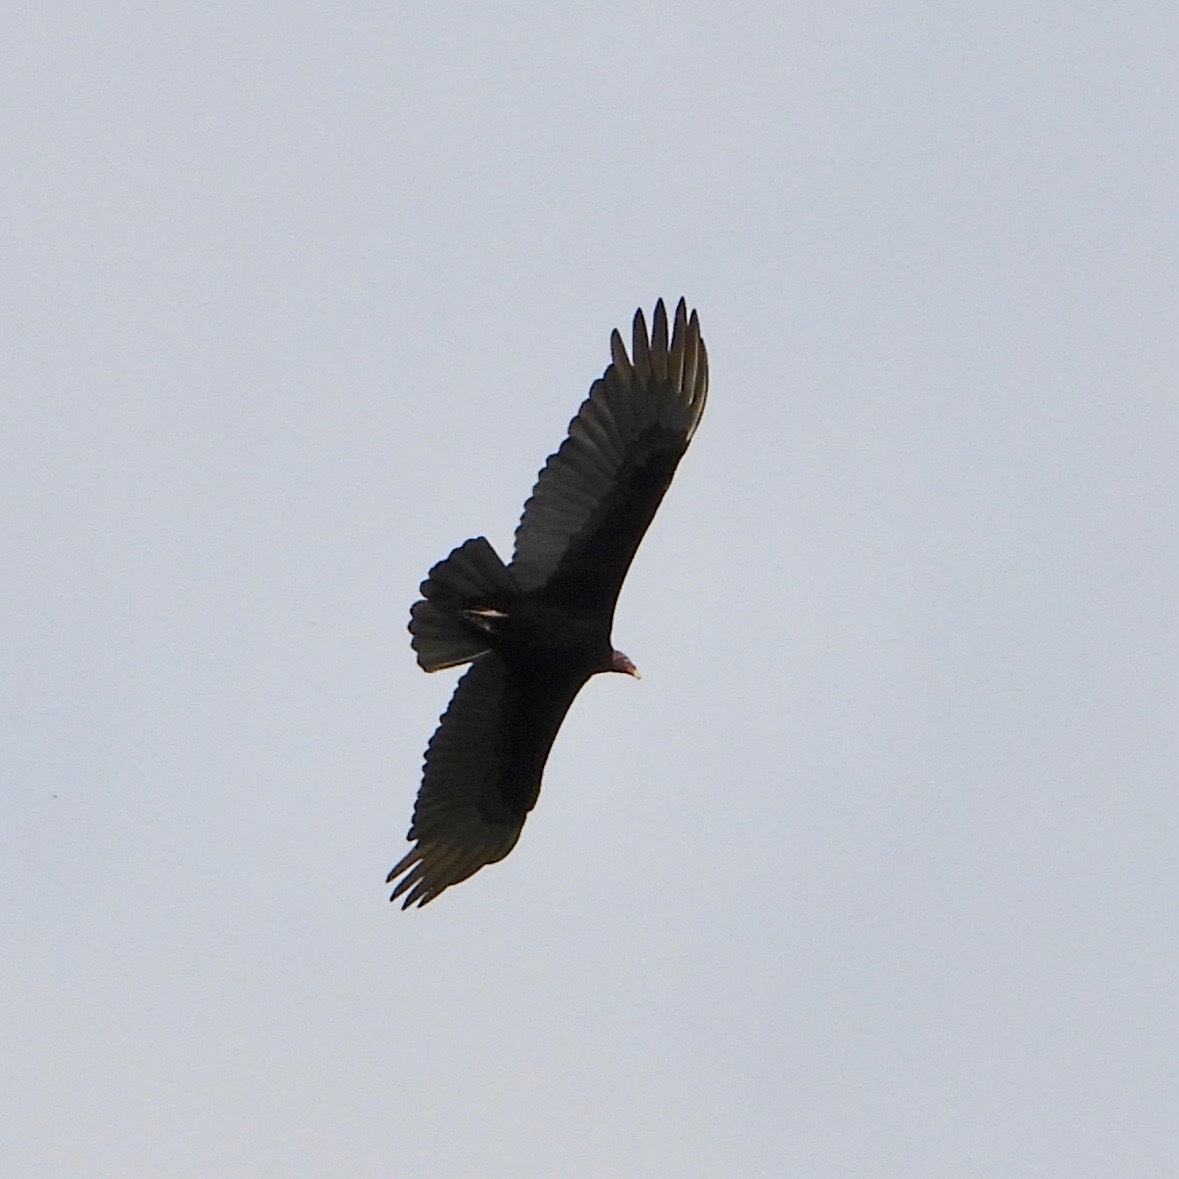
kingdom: Animalia
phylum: Chordata
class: Aves
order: Accipitriformes
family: Cathartidae
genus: Cathartes
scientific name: Cathartes aura
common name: Turkey vulture
